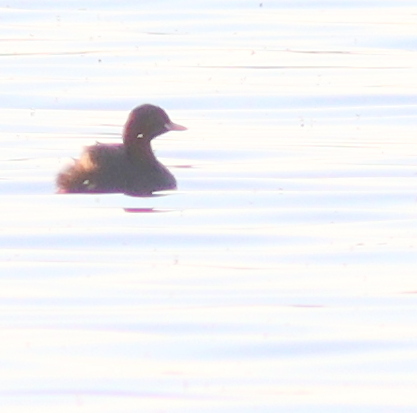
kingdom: Animalia
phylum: Chordata
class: Aves
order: Podicipediformes
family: Podicipedidae
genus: Tachybaptus
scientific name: Tachybaptus ruficollis
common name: Little grebe
